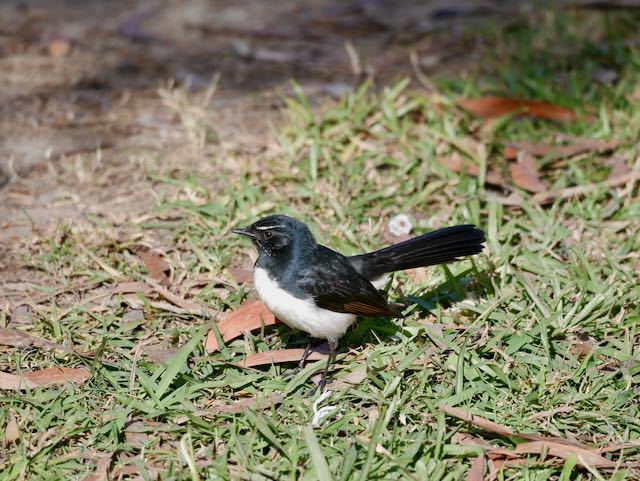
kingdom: Animalia
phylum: Chordata
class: Aves
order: Passeriformes
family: Rhipiduridae
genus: Rhipidura
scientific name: Rhipidura leucophrys
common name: Willie wagtail
